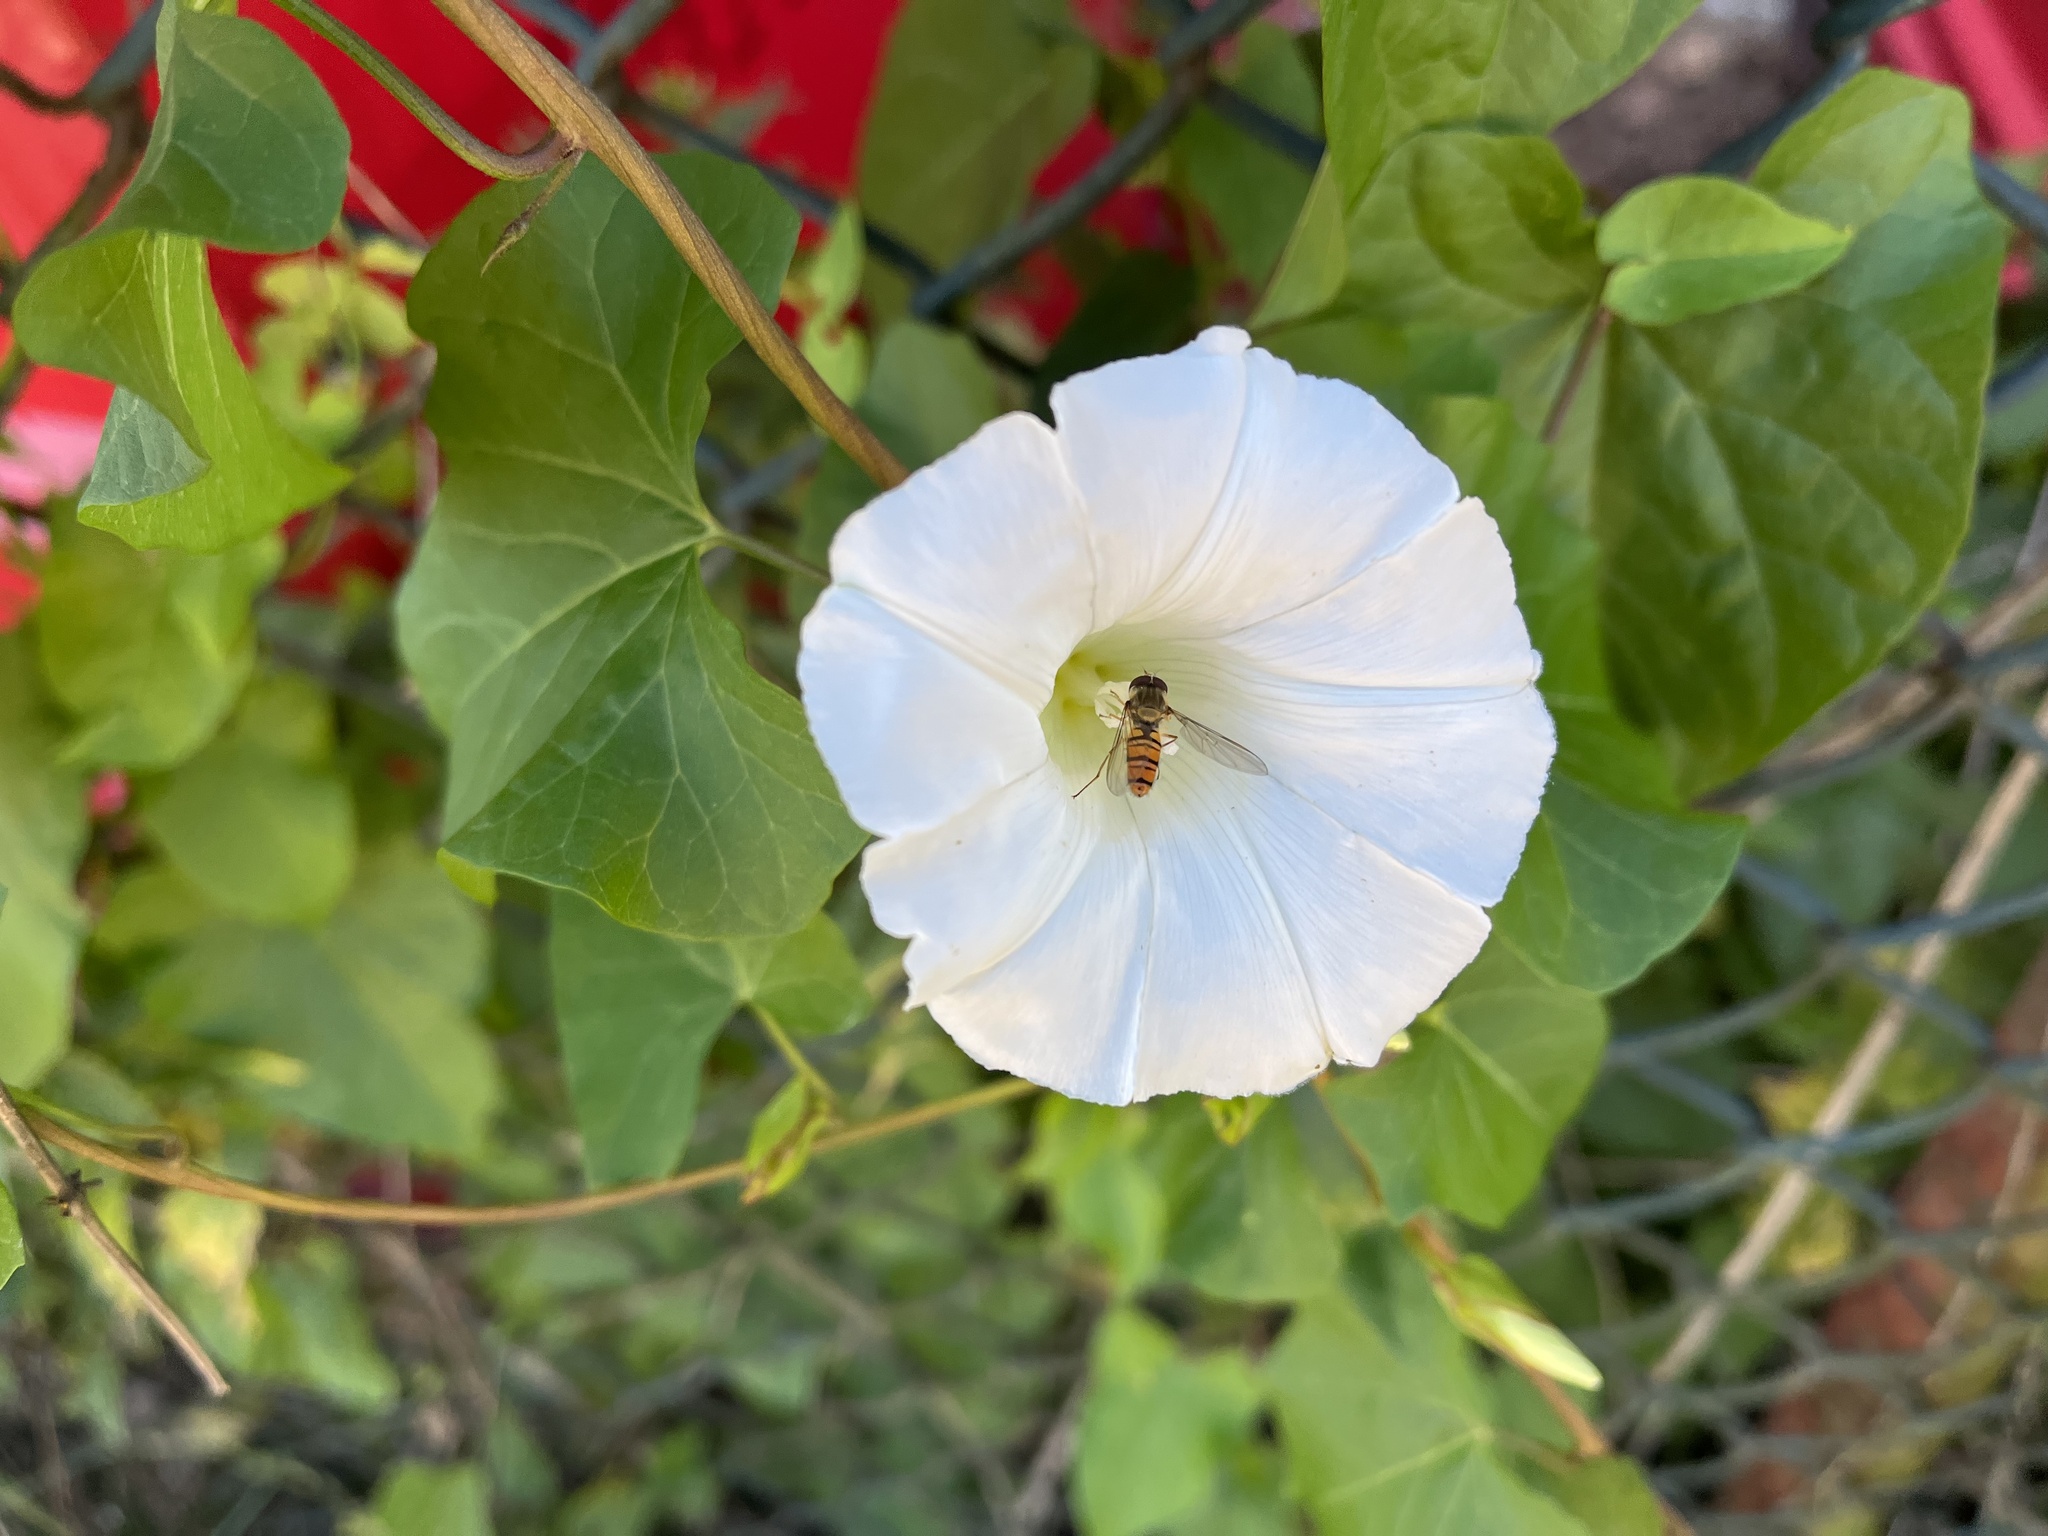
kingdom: Plantae
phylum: Tracheophyta
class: Magnoliopsida
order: Solanales
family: Convolvulaceae
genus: Calystegia
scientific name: Calystegia sepium
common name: Hedge bindweed
